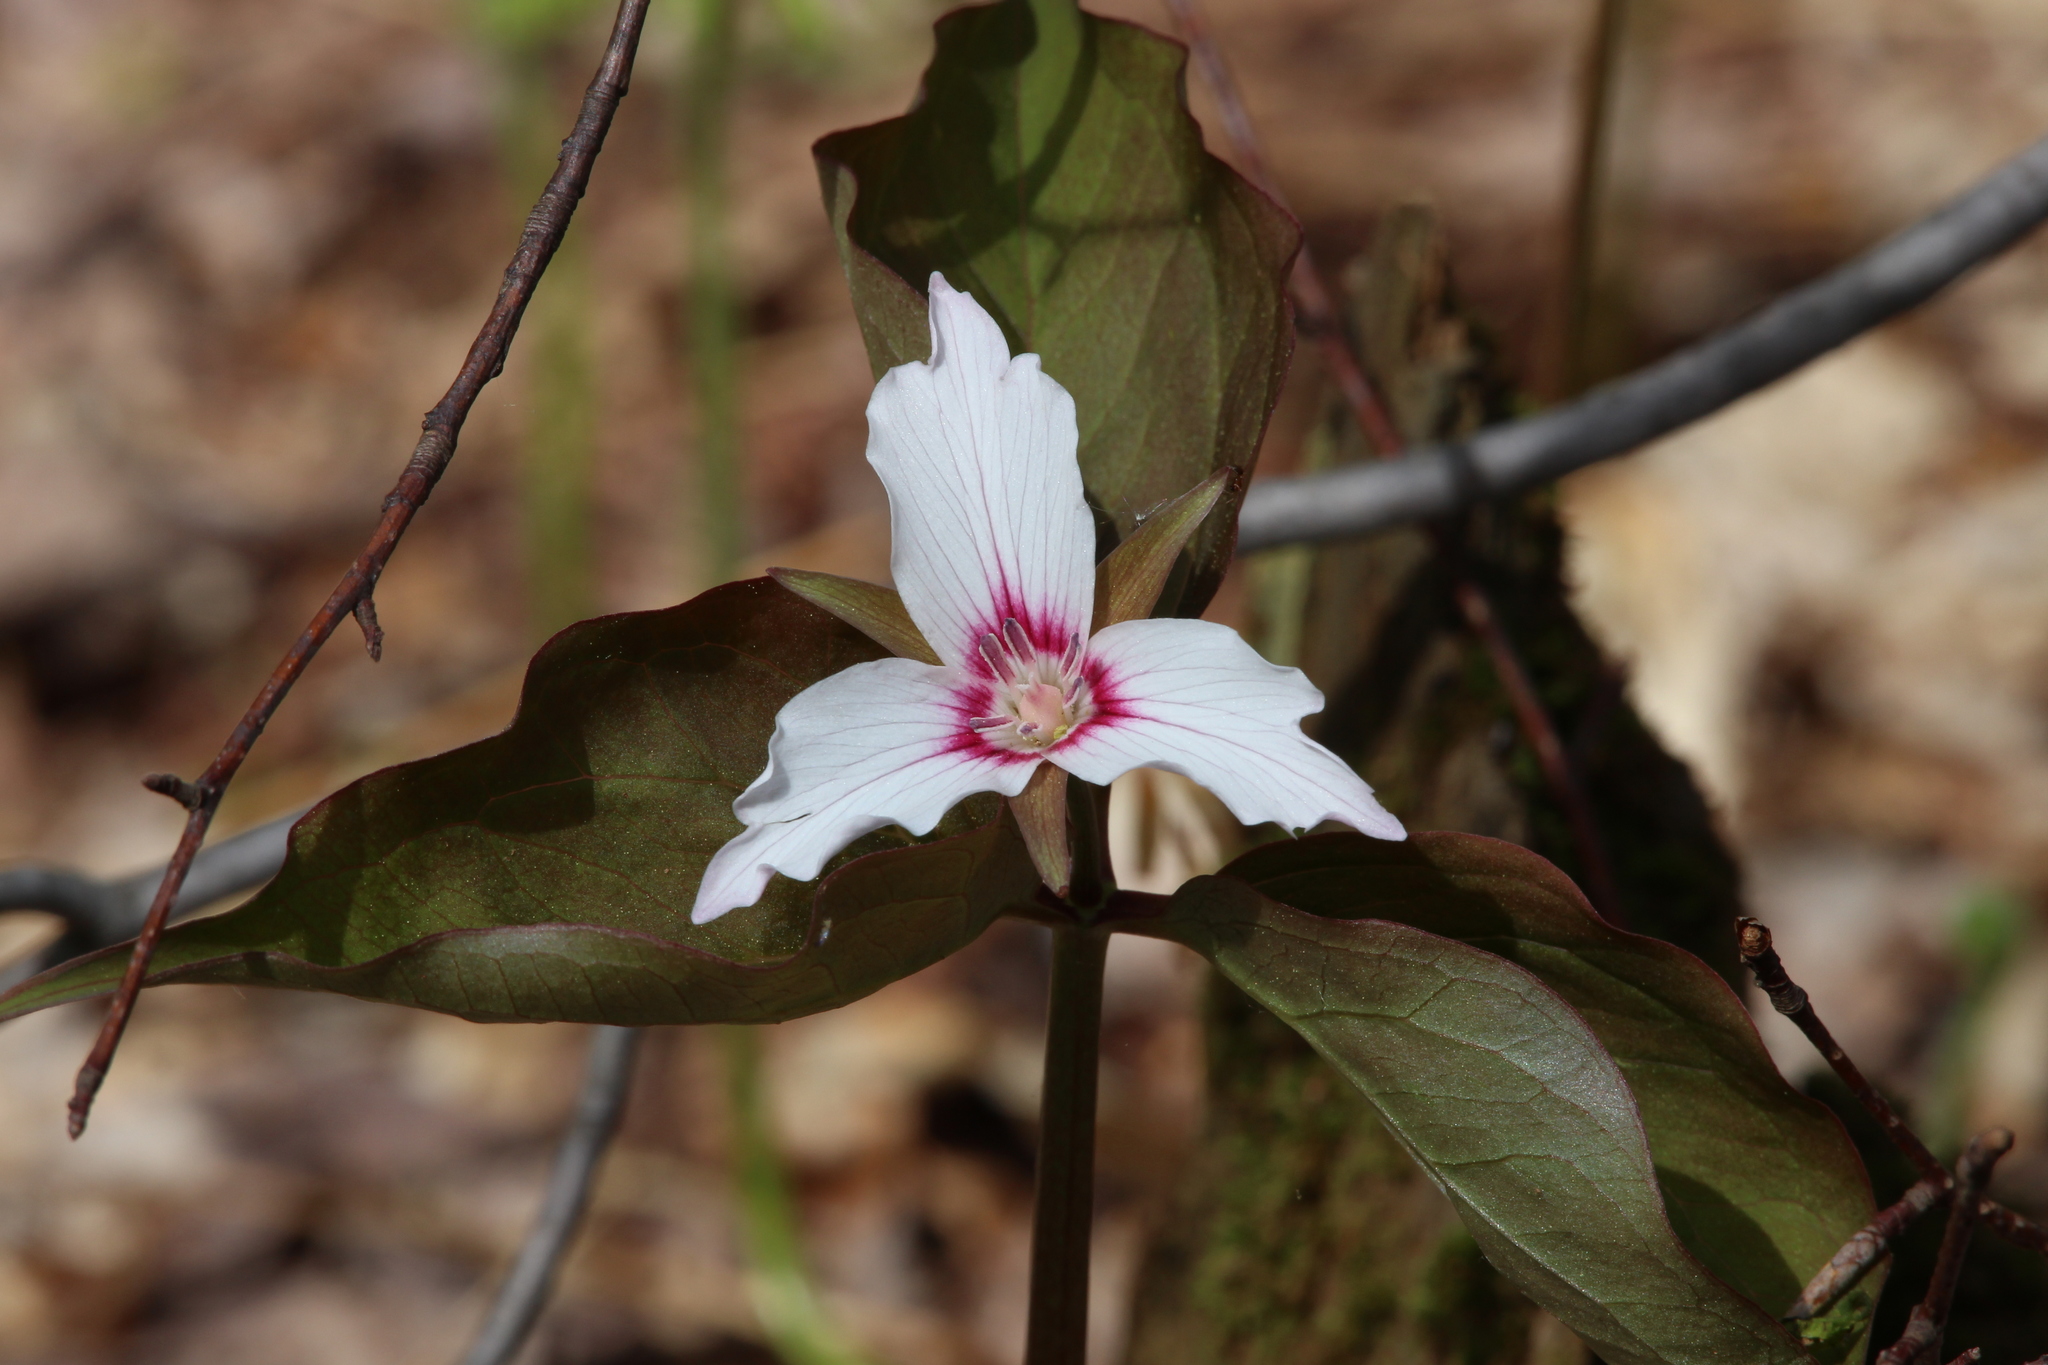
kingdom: Plantae
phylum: Tracheophyta
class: Liliopsida
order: Liliales
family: Melanthiaceae
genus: Trillium
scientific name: Trillium undulatum
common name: Paint trillium
